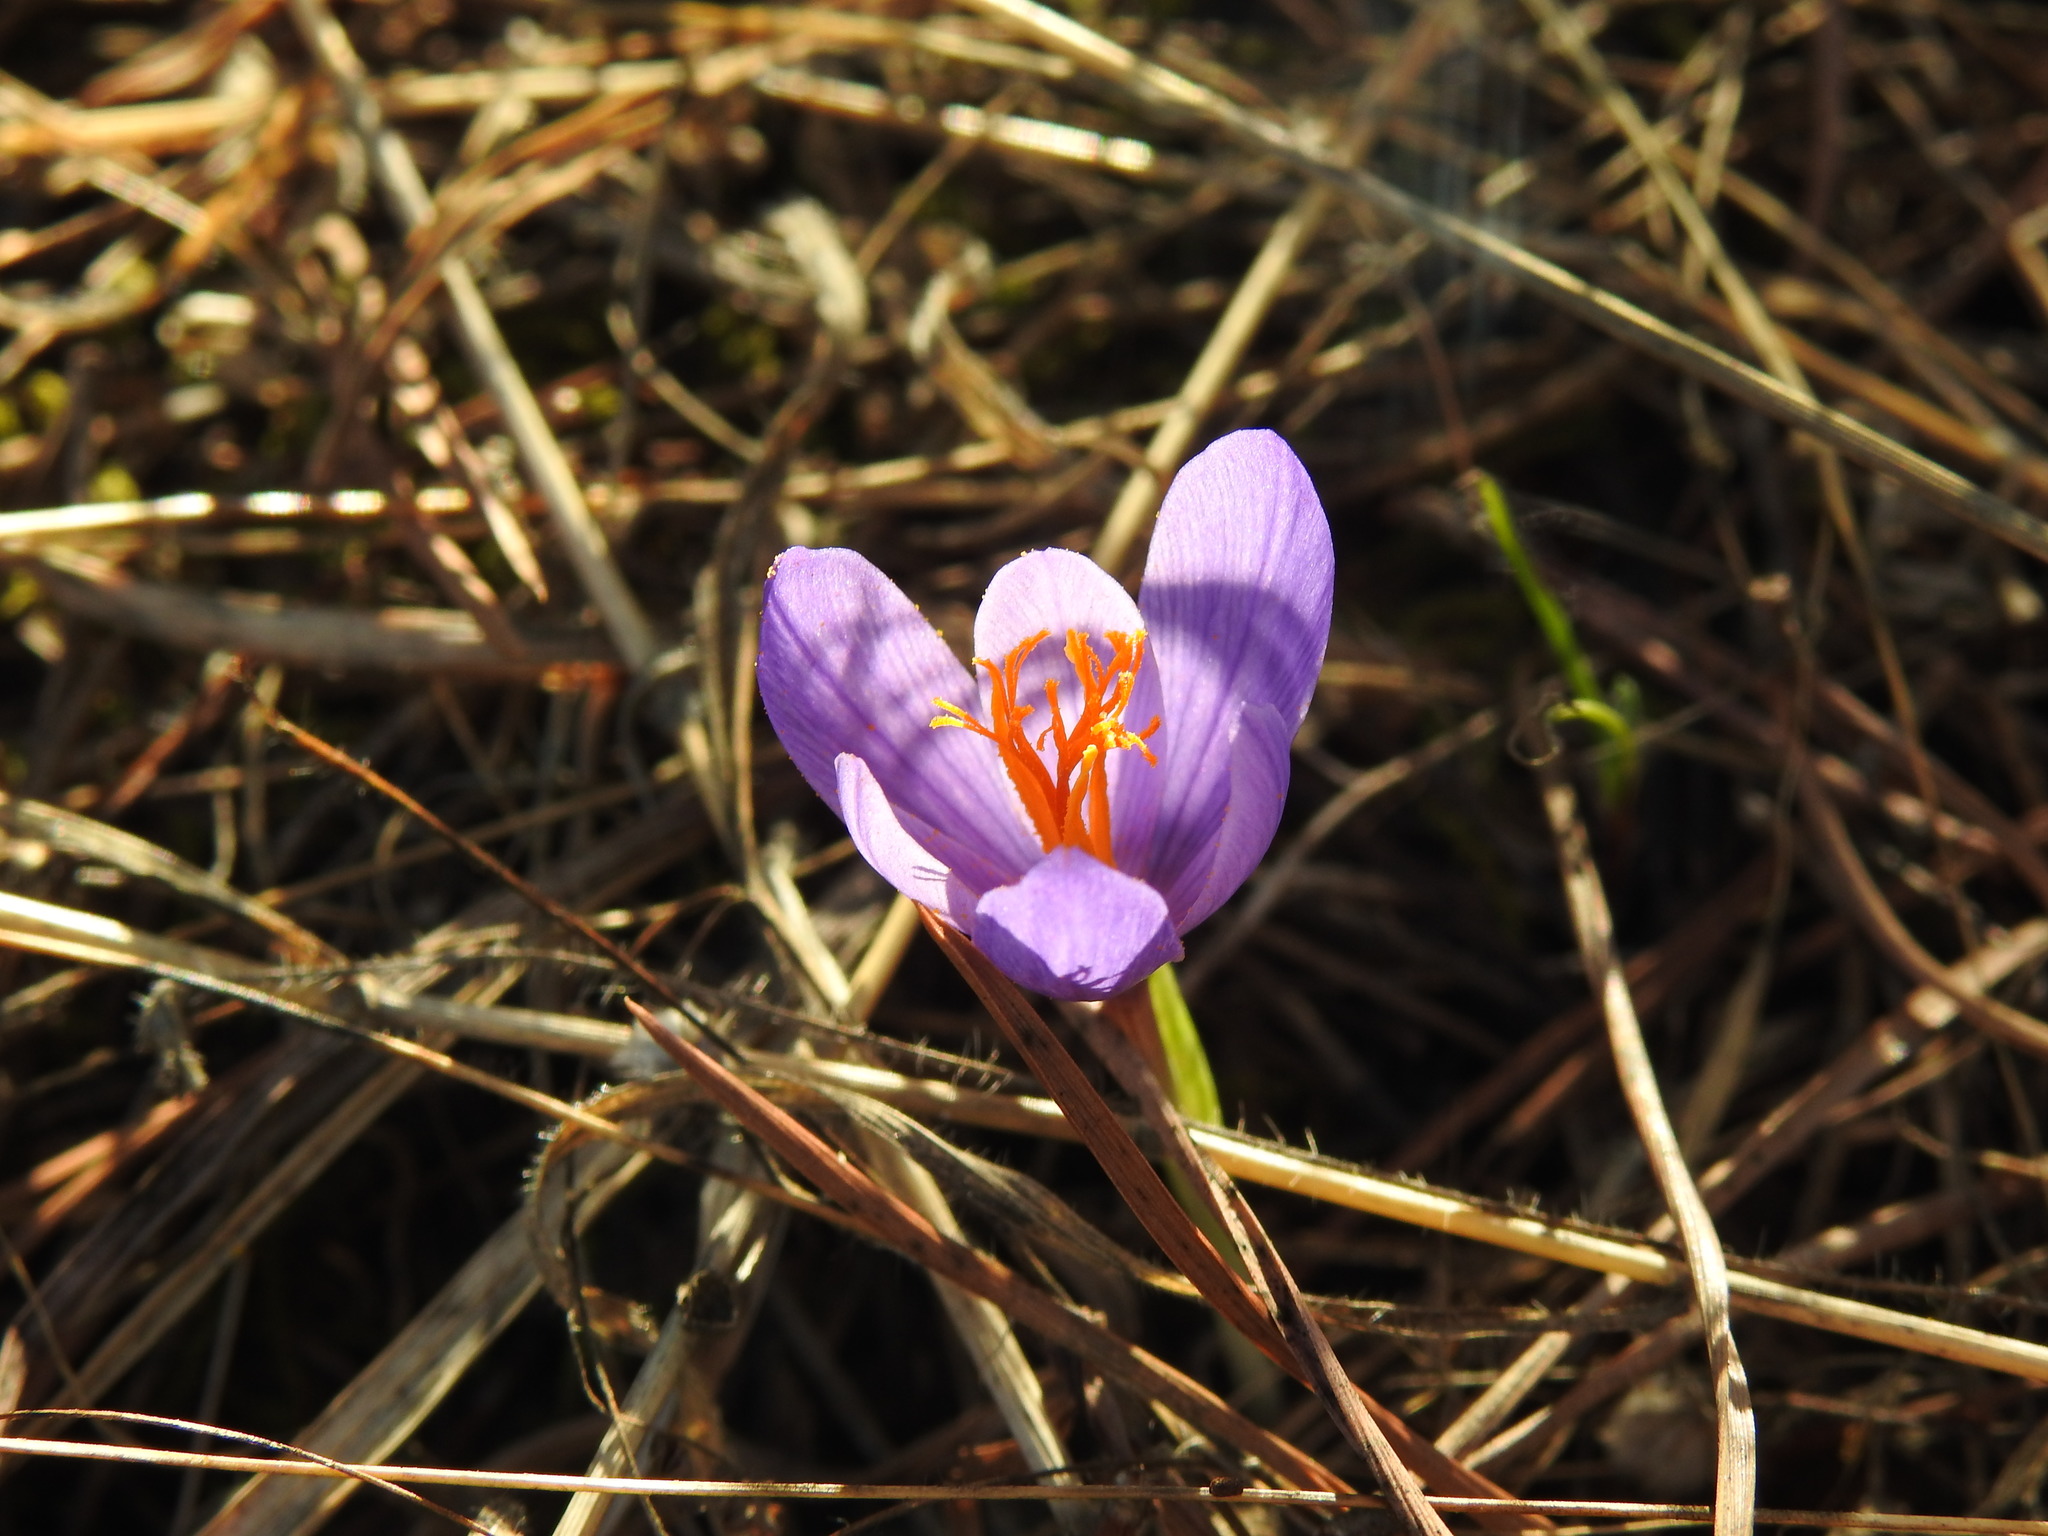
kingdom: Plantae
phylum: Tracheophyta
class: Liliopsida
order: Asparagales
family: Iridaceae
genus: Crocus
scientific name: Crocus serotinus
